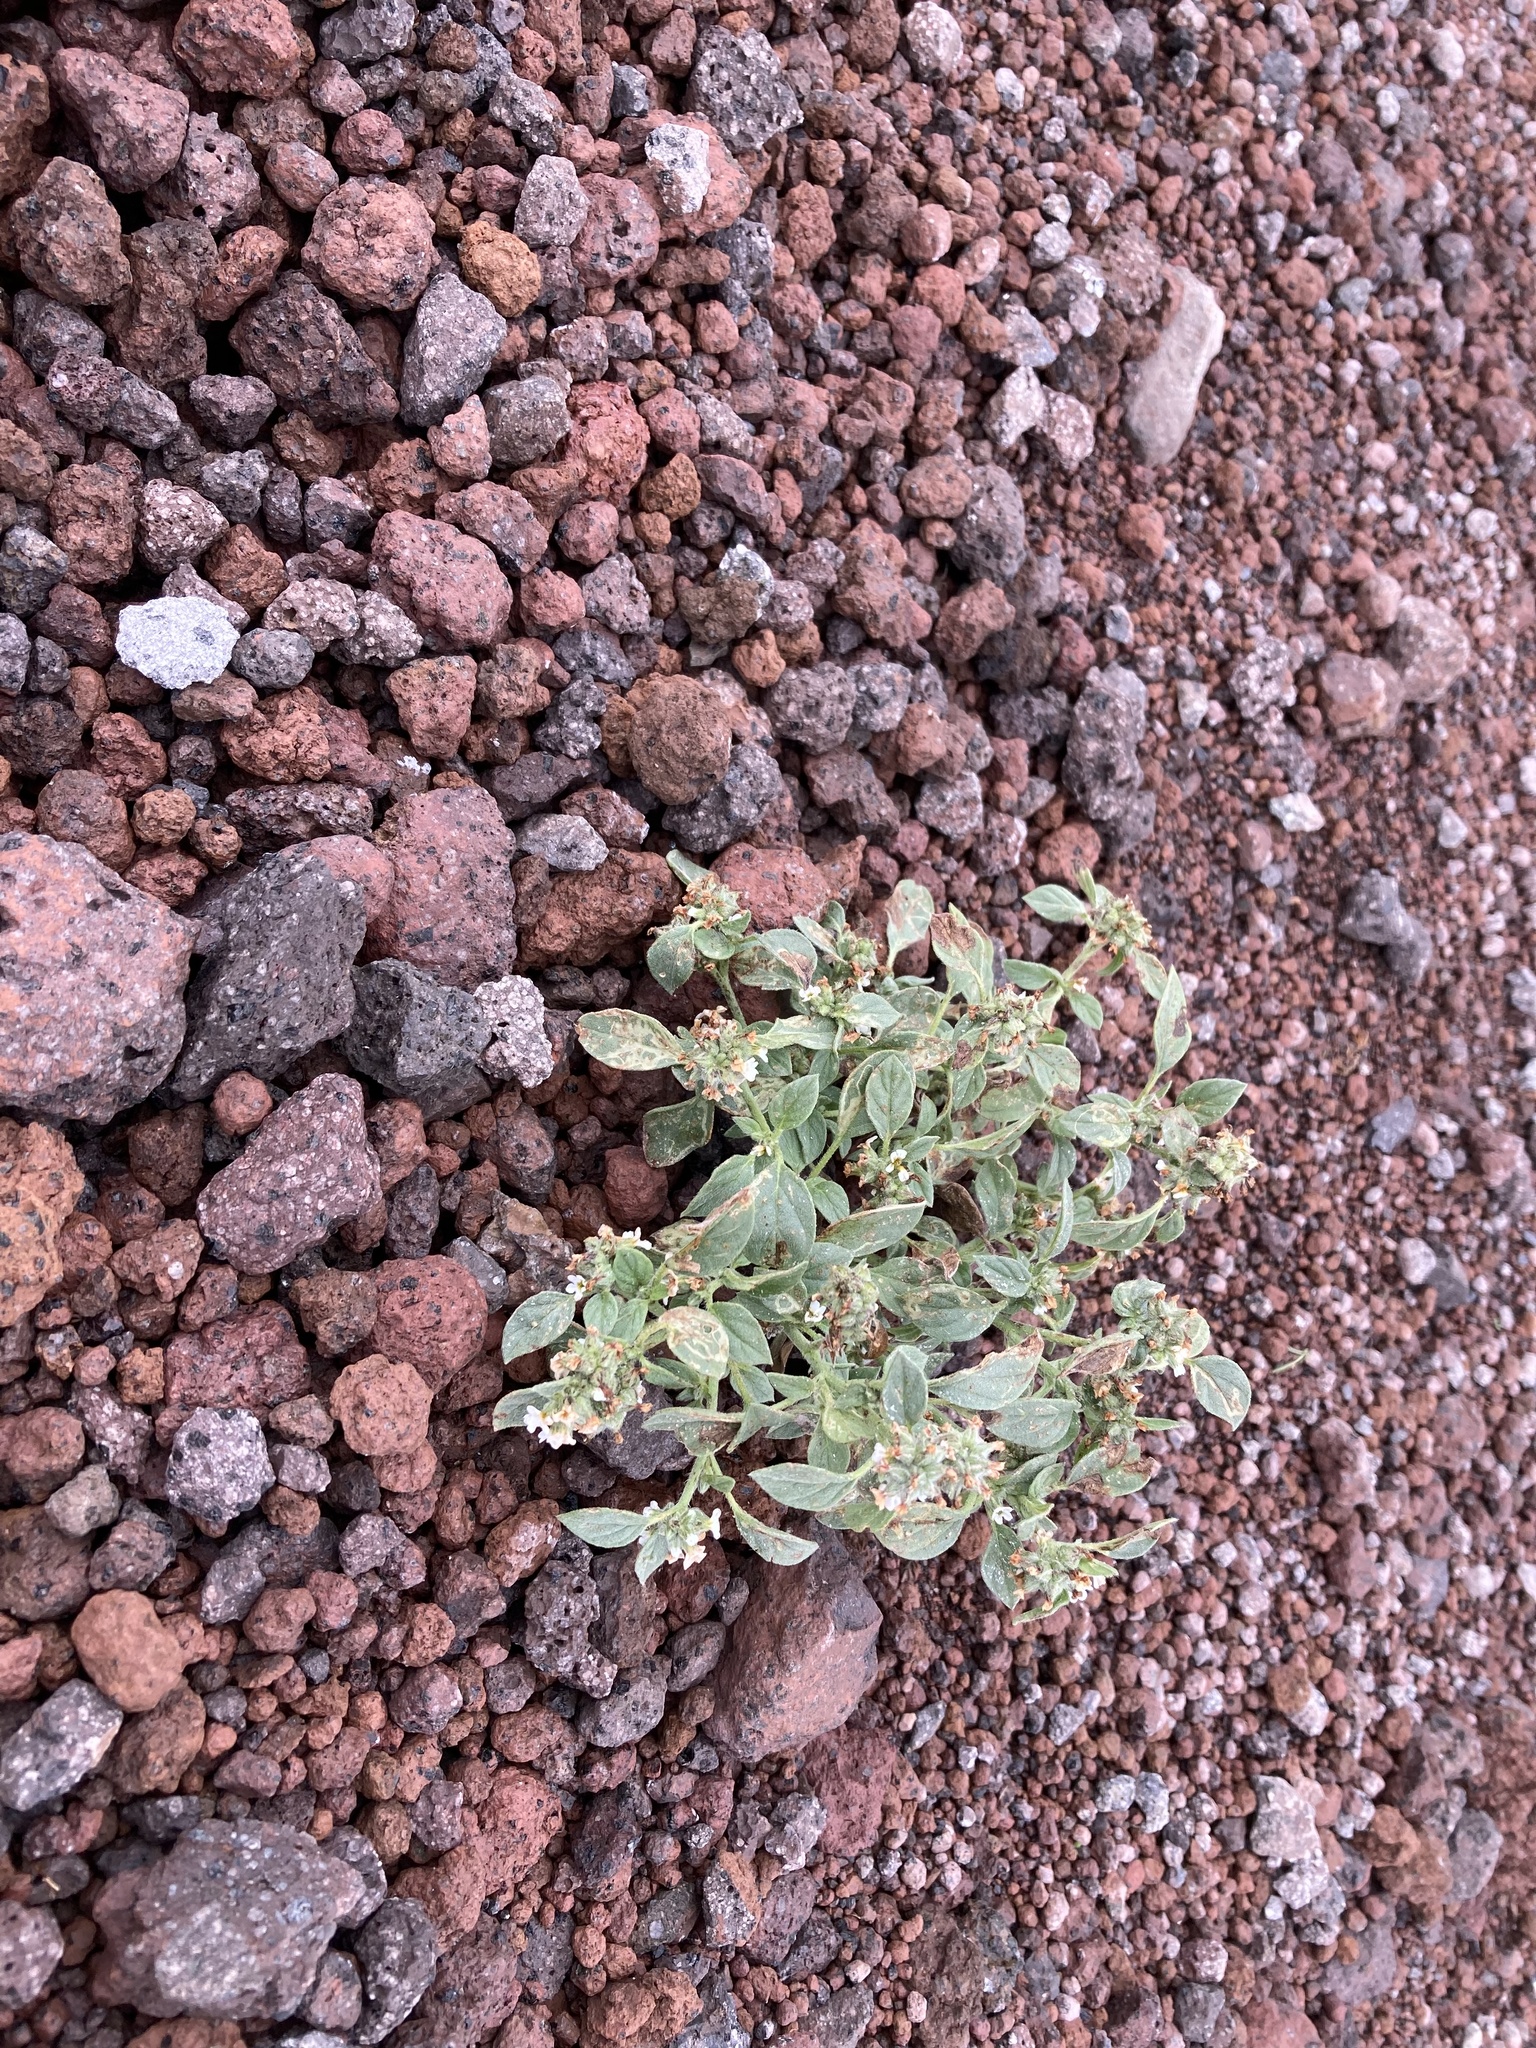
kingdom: Plantae
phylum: Tracheophyta
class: Magnoliopsida
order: Boraginales
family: Heliotropiaceae
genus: Heliotropium
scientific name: Heliotropium europaeum
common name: European heliotrope
